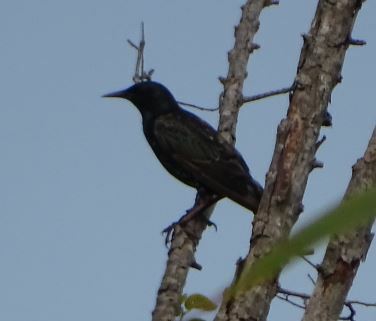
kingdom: Animalia
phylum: Chordata
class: Aves
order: Passeriformes
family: Sturnidae
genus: Sturnus
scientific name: Sturnus vulgaris
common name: Common starling
